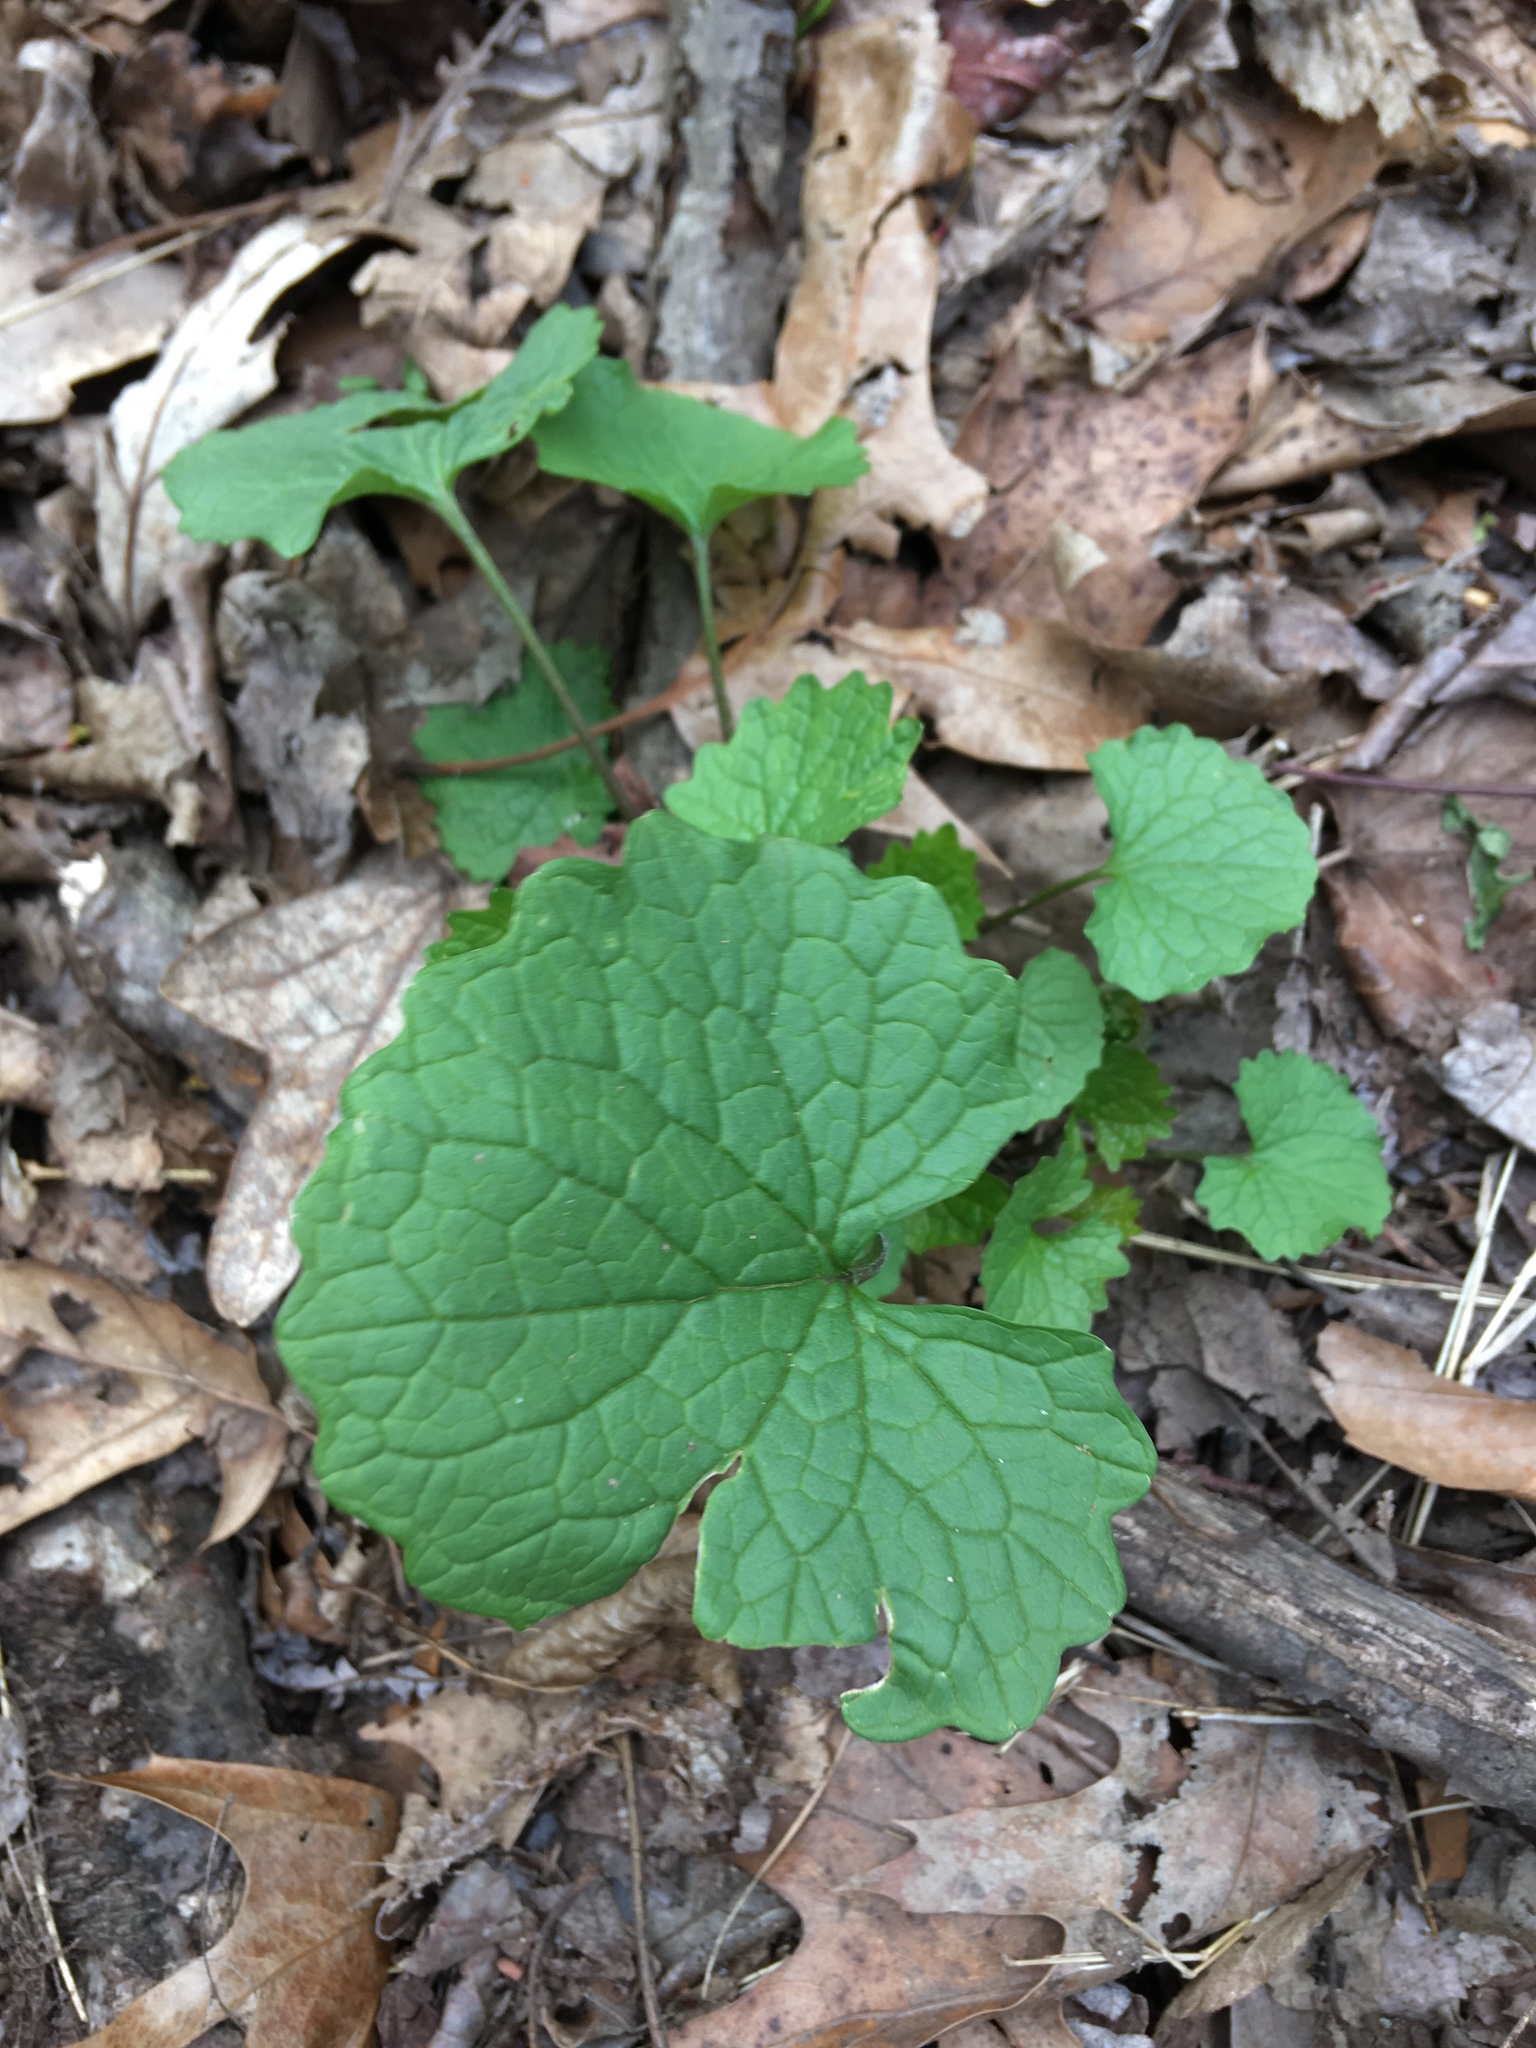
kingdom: Plantae
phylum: Tracheophyta
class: Magnoliopsida
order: Brassicales
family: Brassicaceae
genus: Alliaria
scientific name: Alliaria petiolata
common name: Garlic mustard
